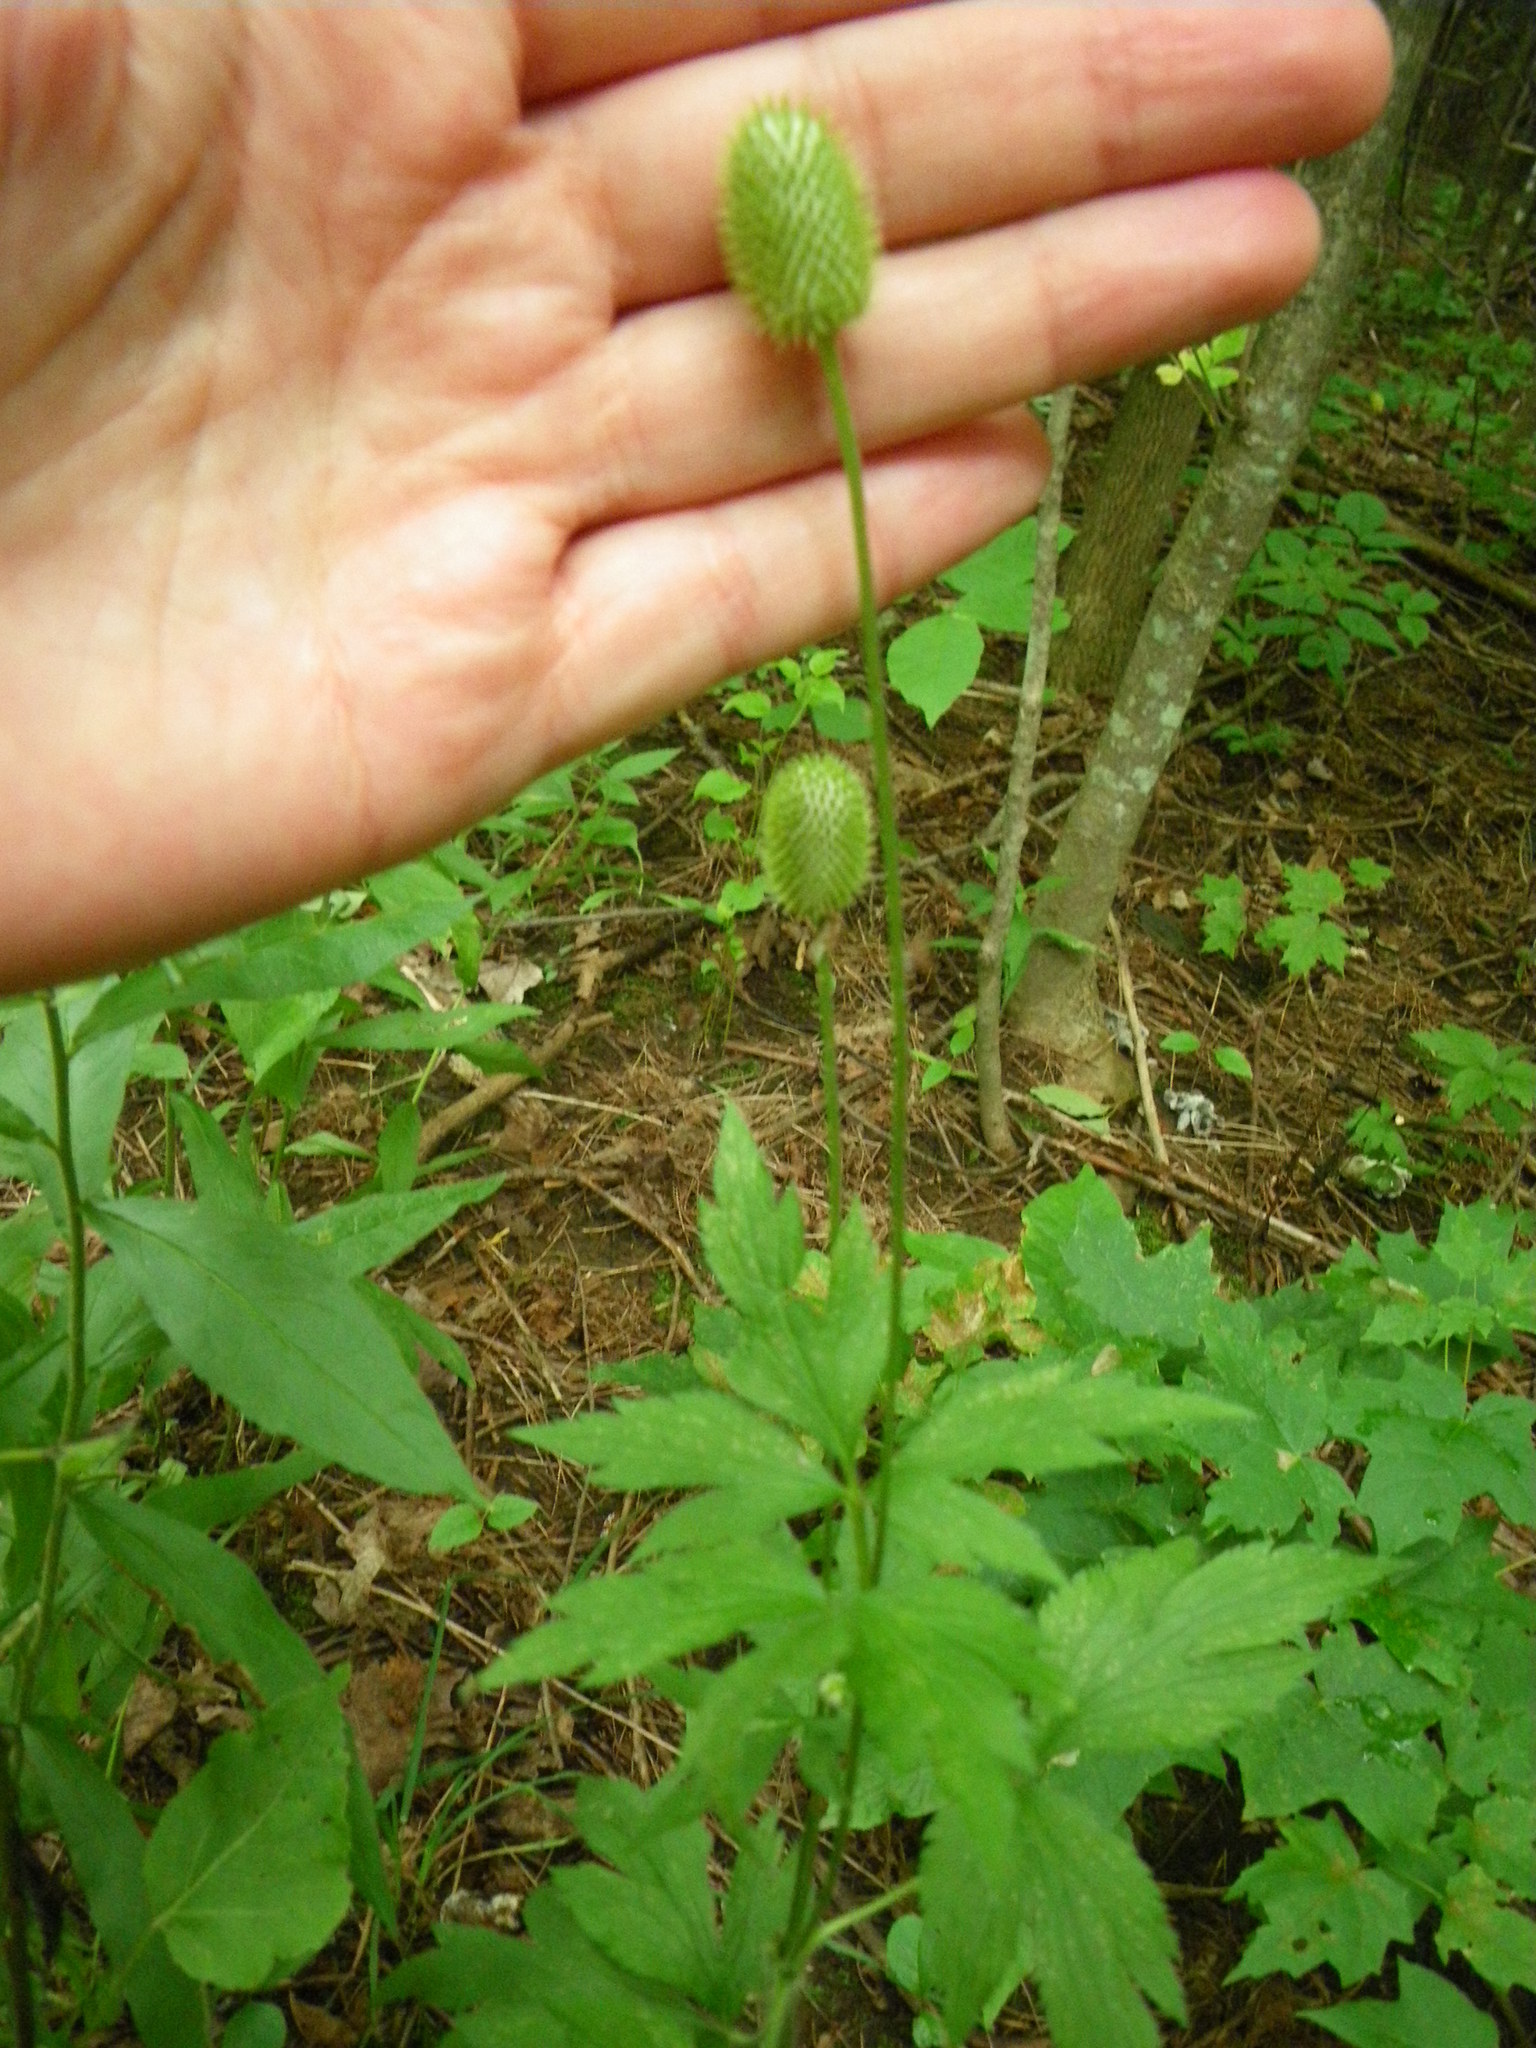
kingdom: Plantae
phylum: Tracheophyta
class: Magnoliopsida
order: Ranunculales
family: Ranunculaceae
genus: Anemone
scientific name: Anemone virginiana
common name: Tall anemone
